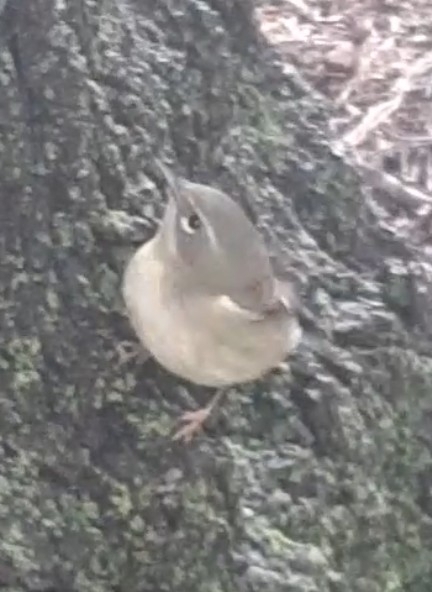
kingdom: Animalia
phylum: Chordata
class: Aves
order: Passeriformes
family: Parulidae
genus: Setophaga
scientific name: Setophaga caerulescens
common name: Black-throated blue warbler
